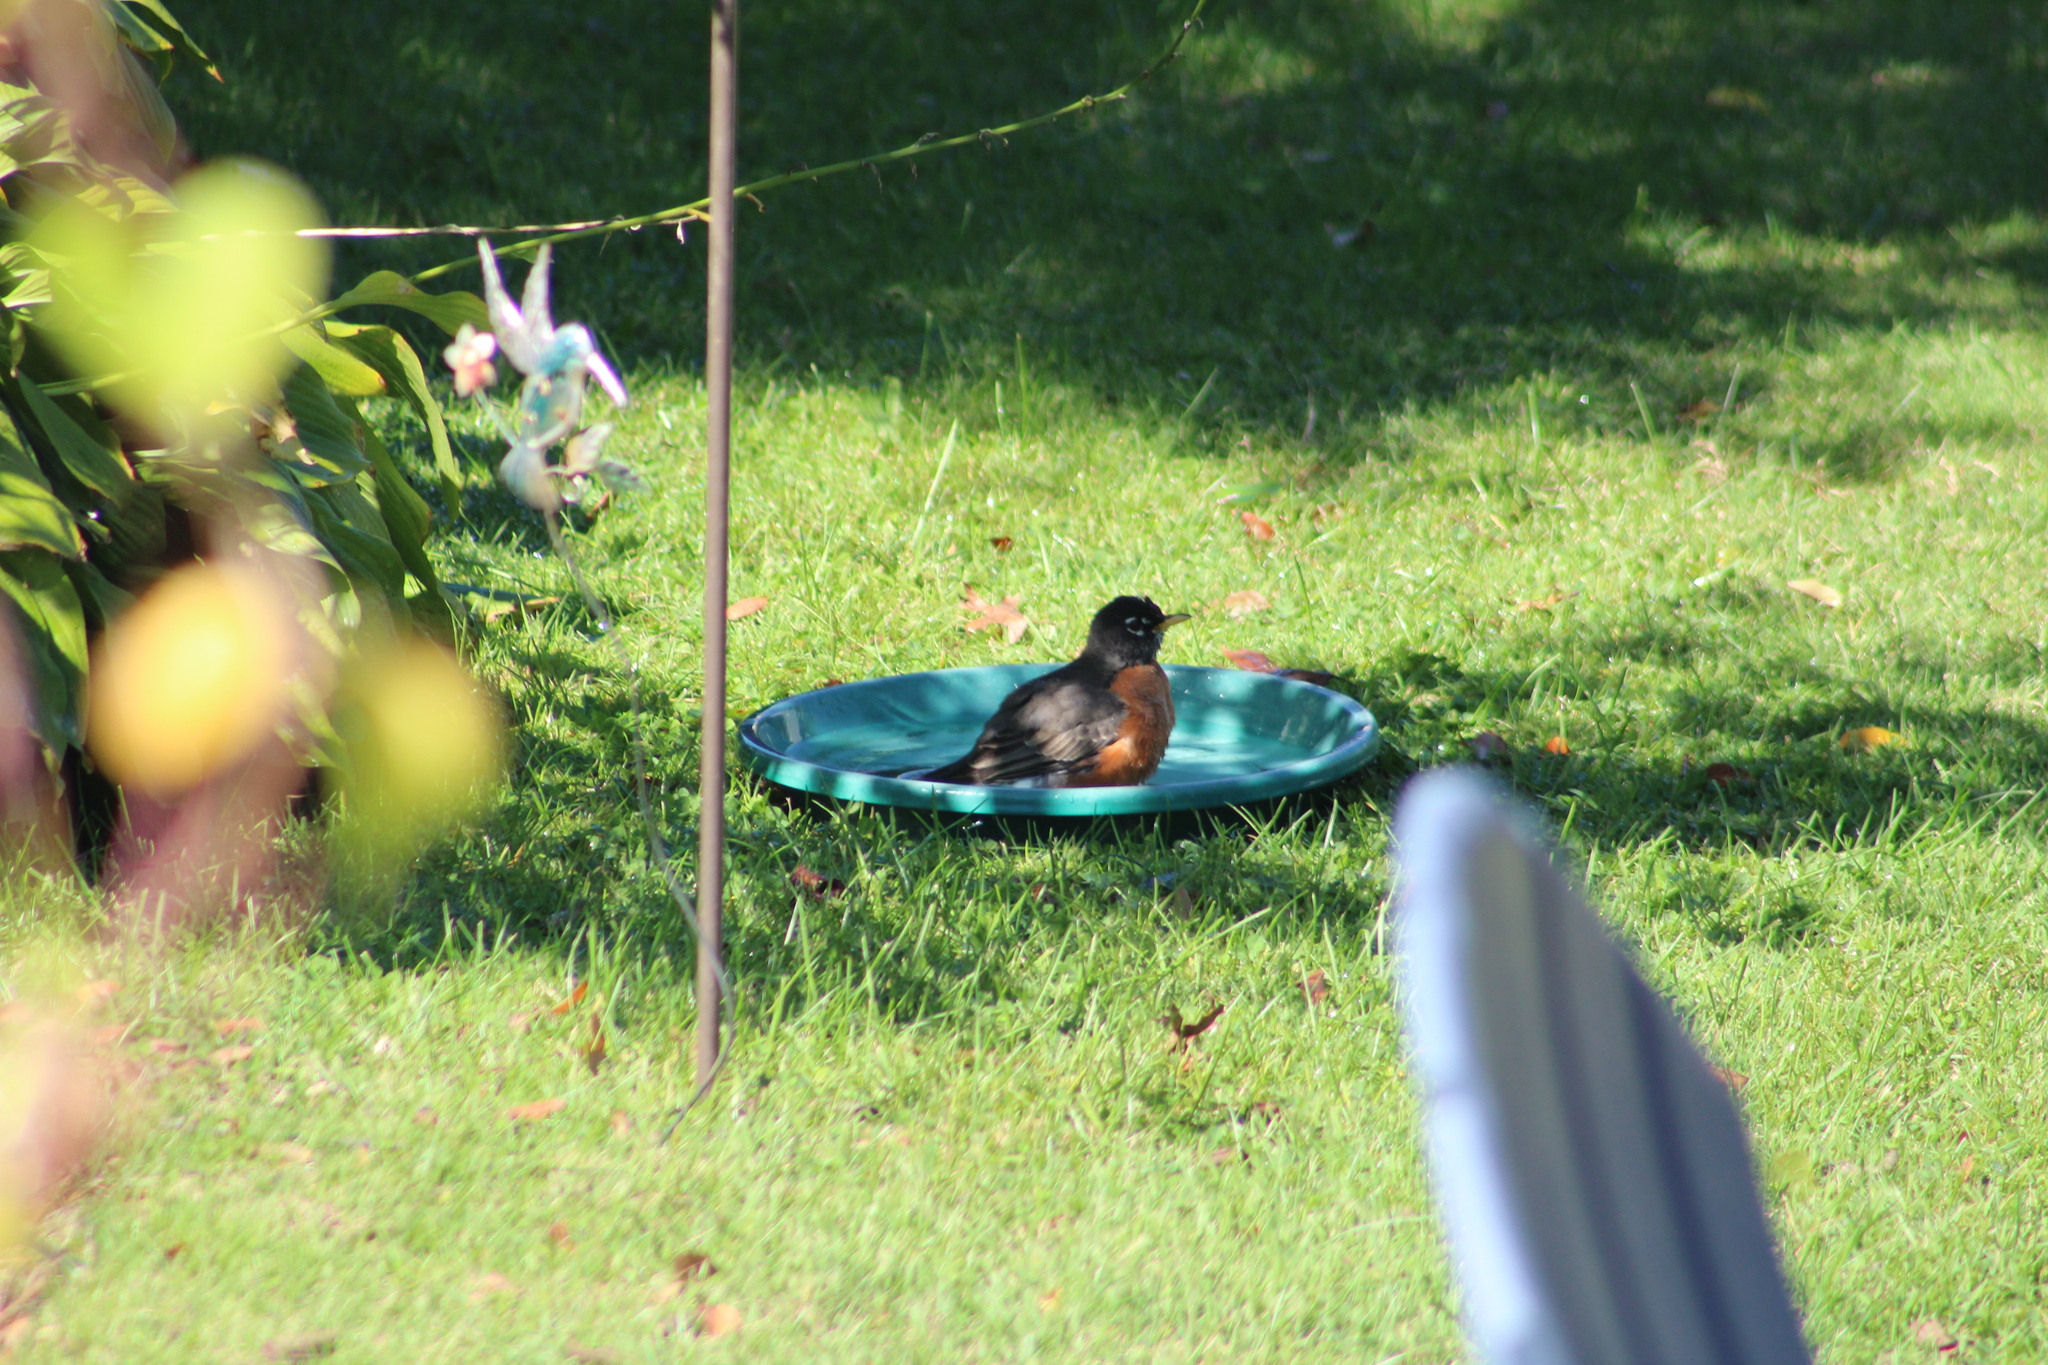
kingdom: Animalia
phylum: Chordata
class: Aves
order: Passeriformes
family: Turdidae
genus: Turdus
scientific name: Turdus migratorius
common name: American robin
